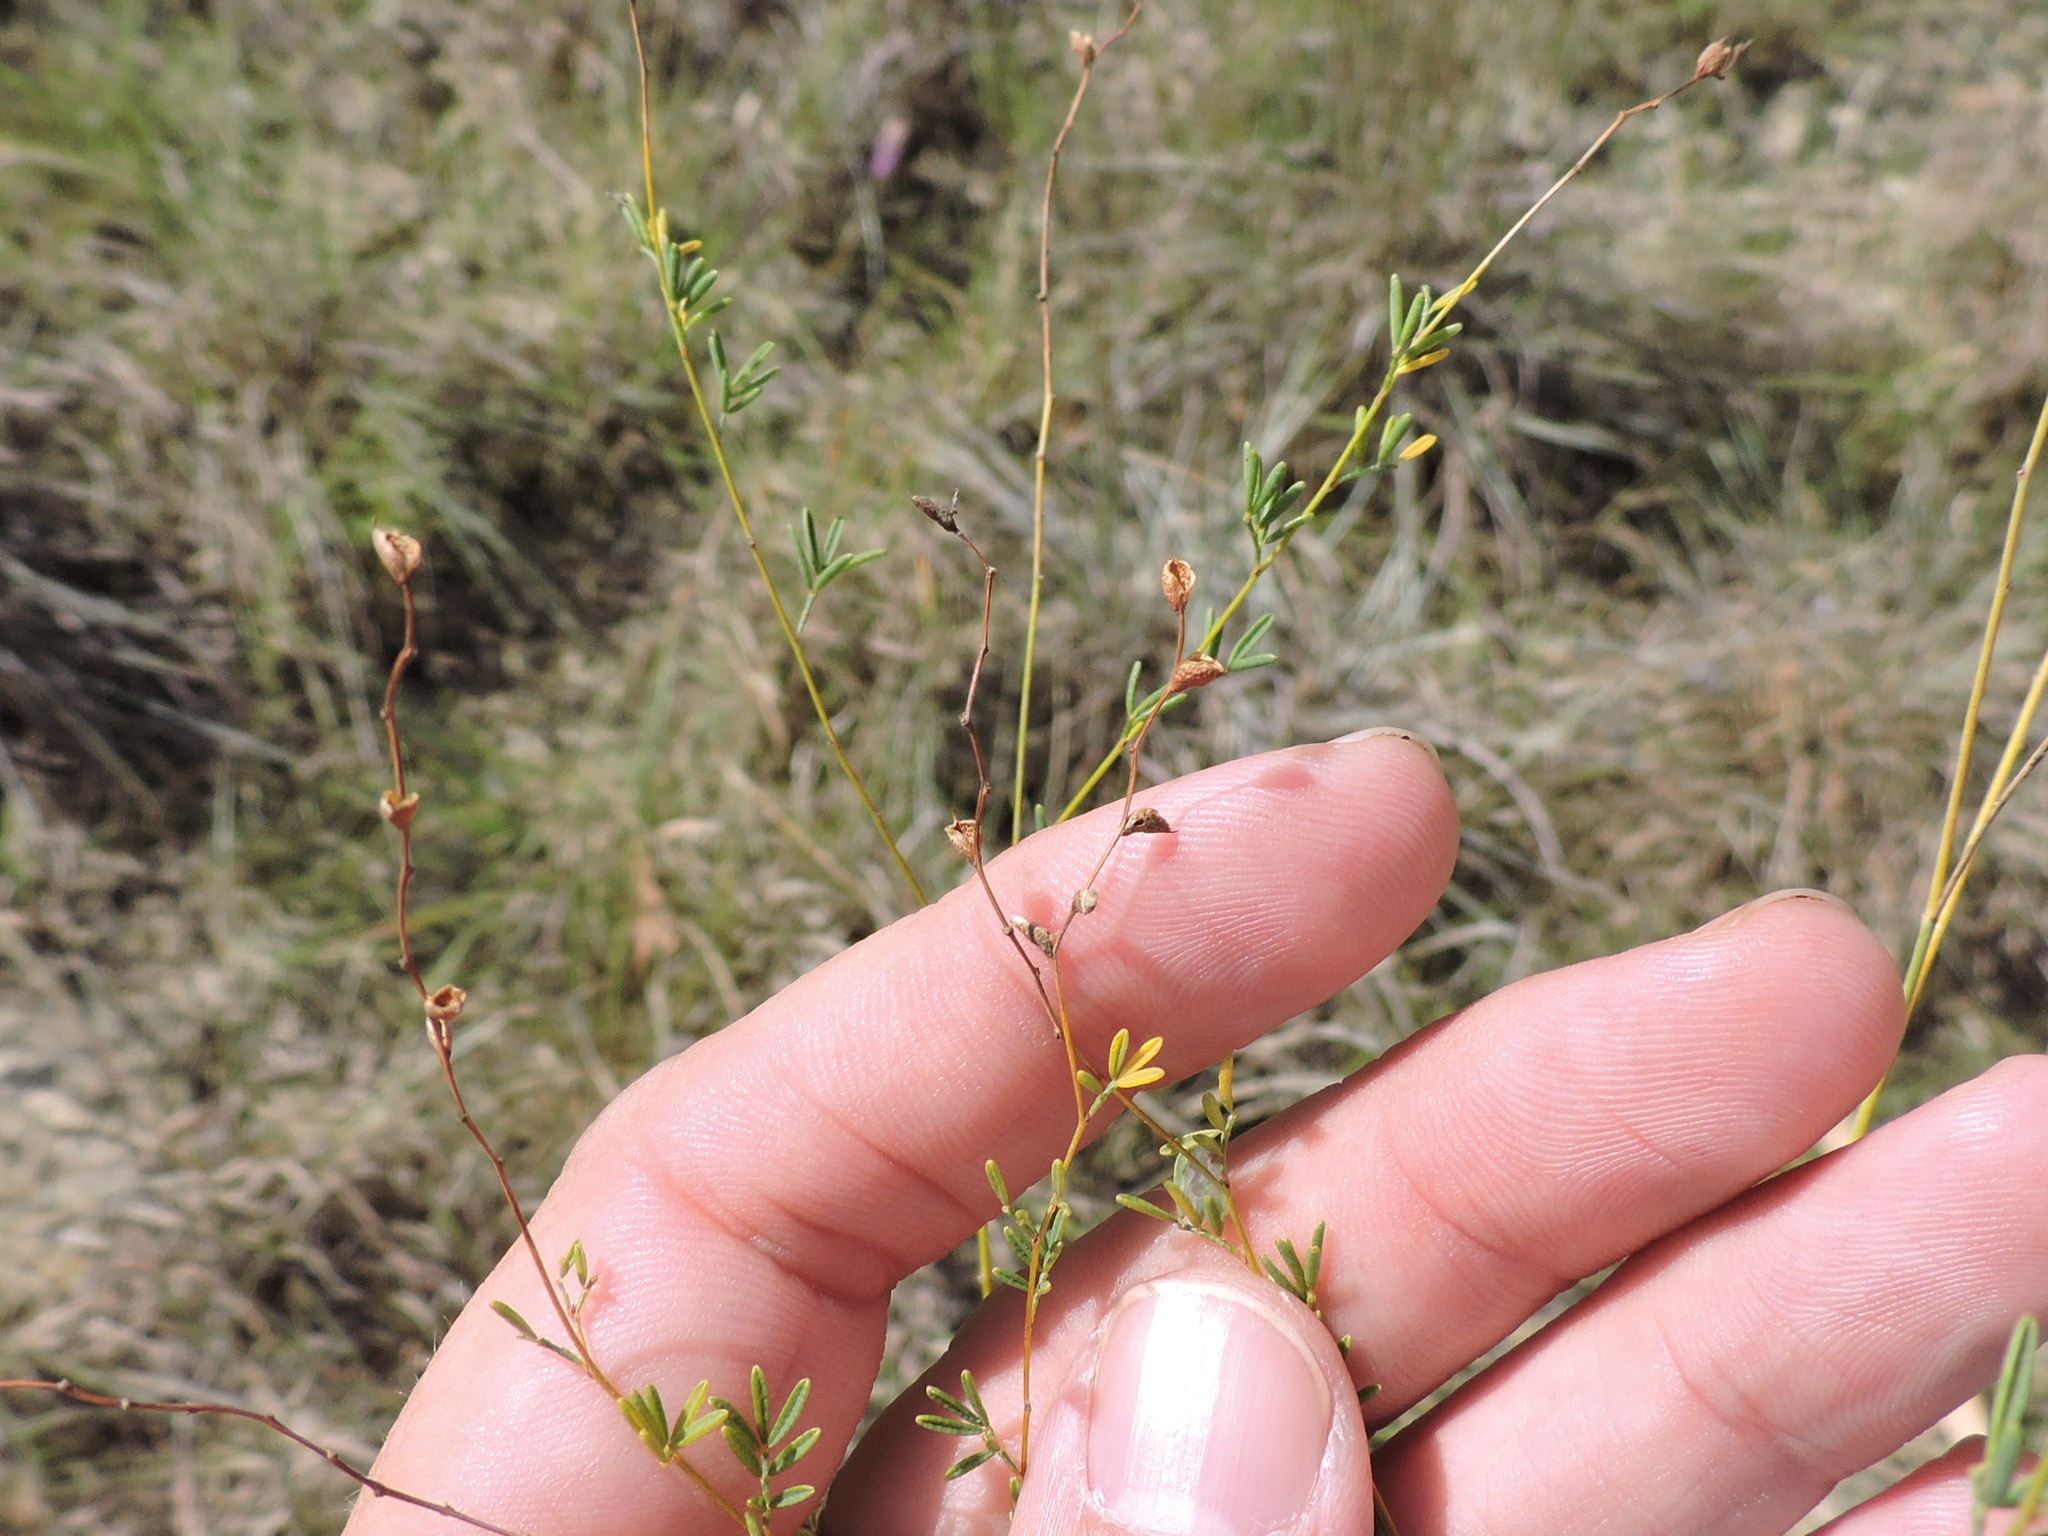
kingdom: Plantae
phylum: Tracheophyta
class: Magnoliopsida
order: Fabales
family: Fabaceae
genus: Dalea
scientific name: Dalea enneandra
